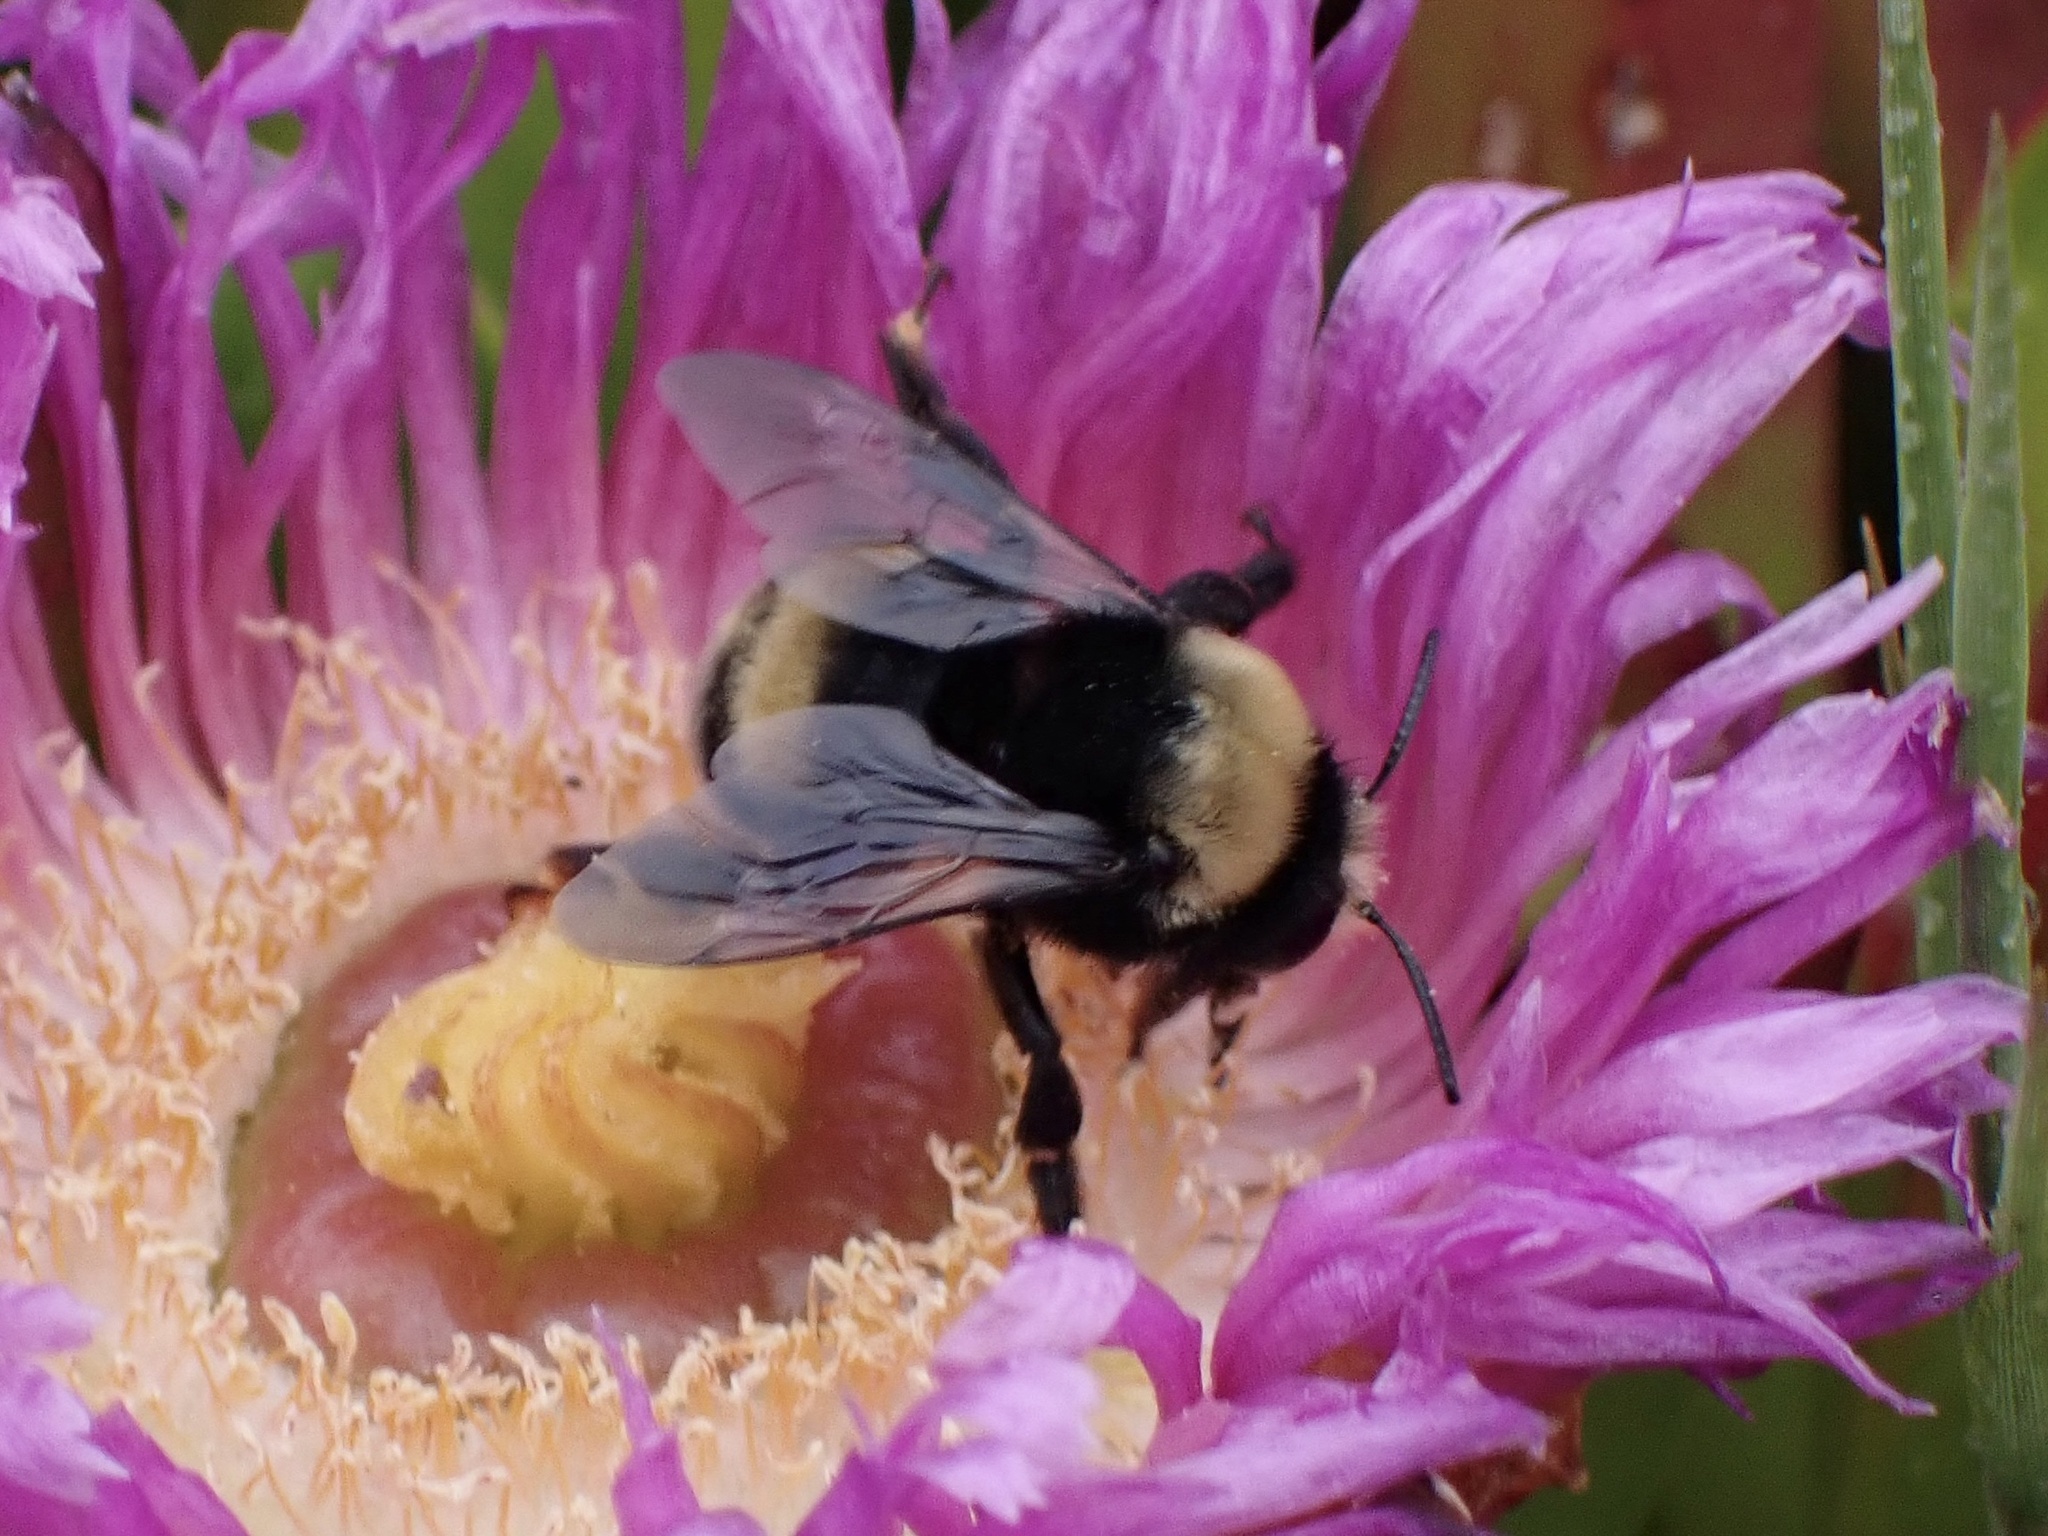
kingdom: Animalia
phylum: Arthropoda
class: Insecta
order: Hymenoptera
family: Apidae
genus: Anthophora
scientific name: Anthophora bomboides
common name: Bumble-bee-mimic digger bee
